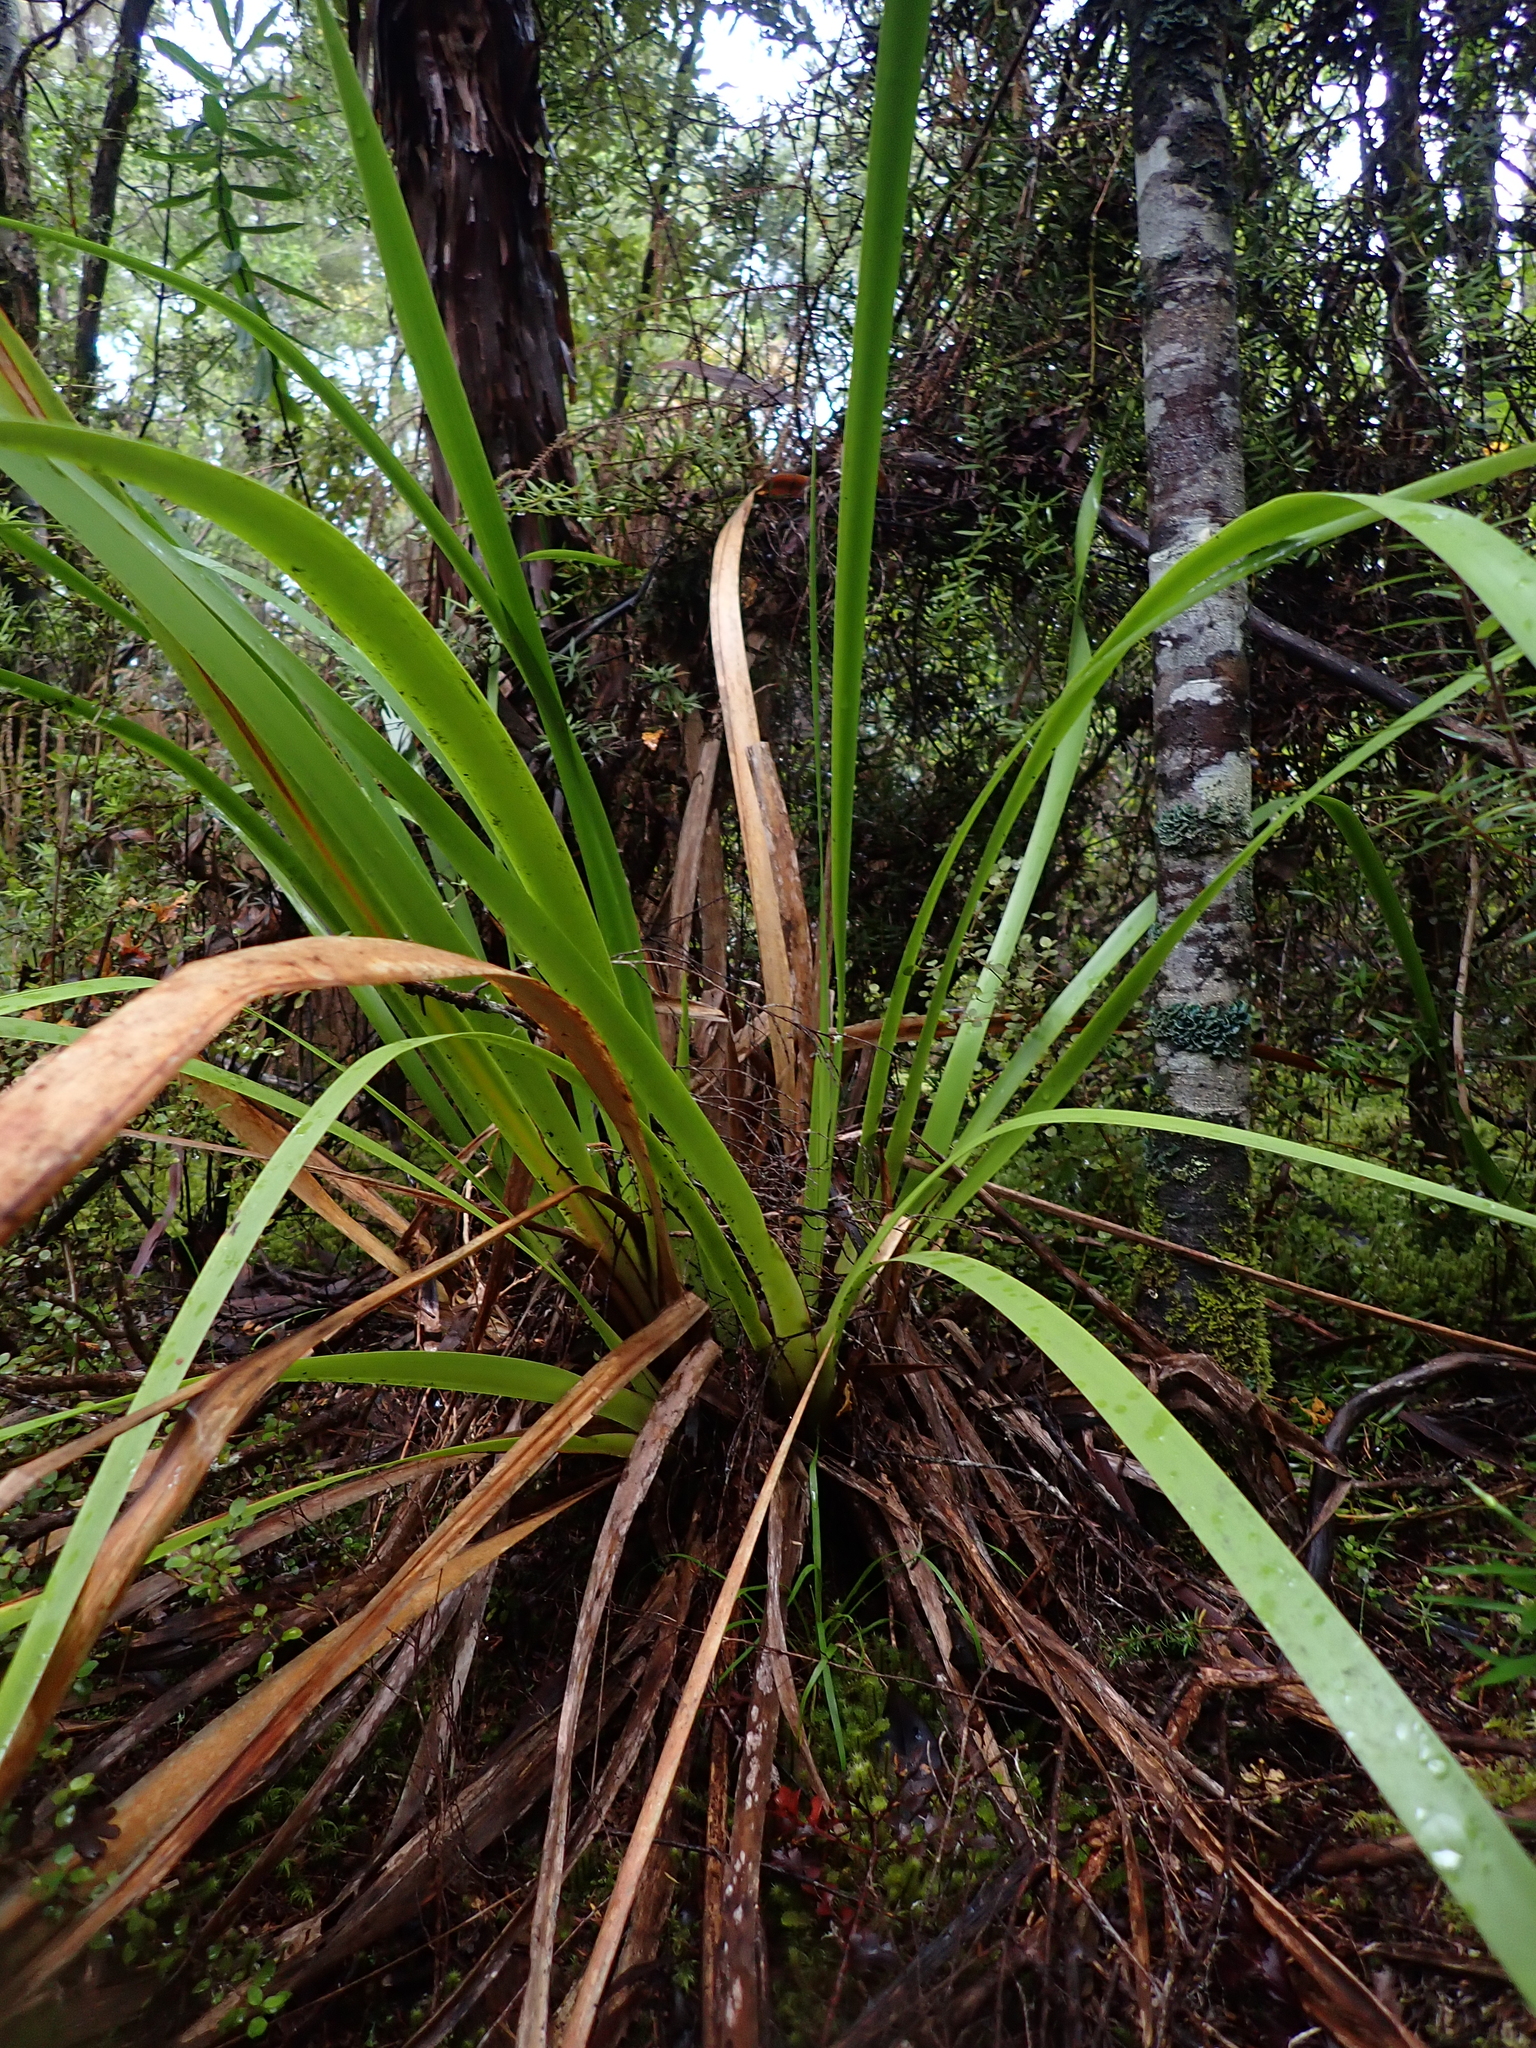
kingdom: Plantae
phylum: Tracheophyta
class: Liliopsida
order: Poales
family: Cyperaceae
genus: Machaerina
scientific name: Machaerina sinclairii
